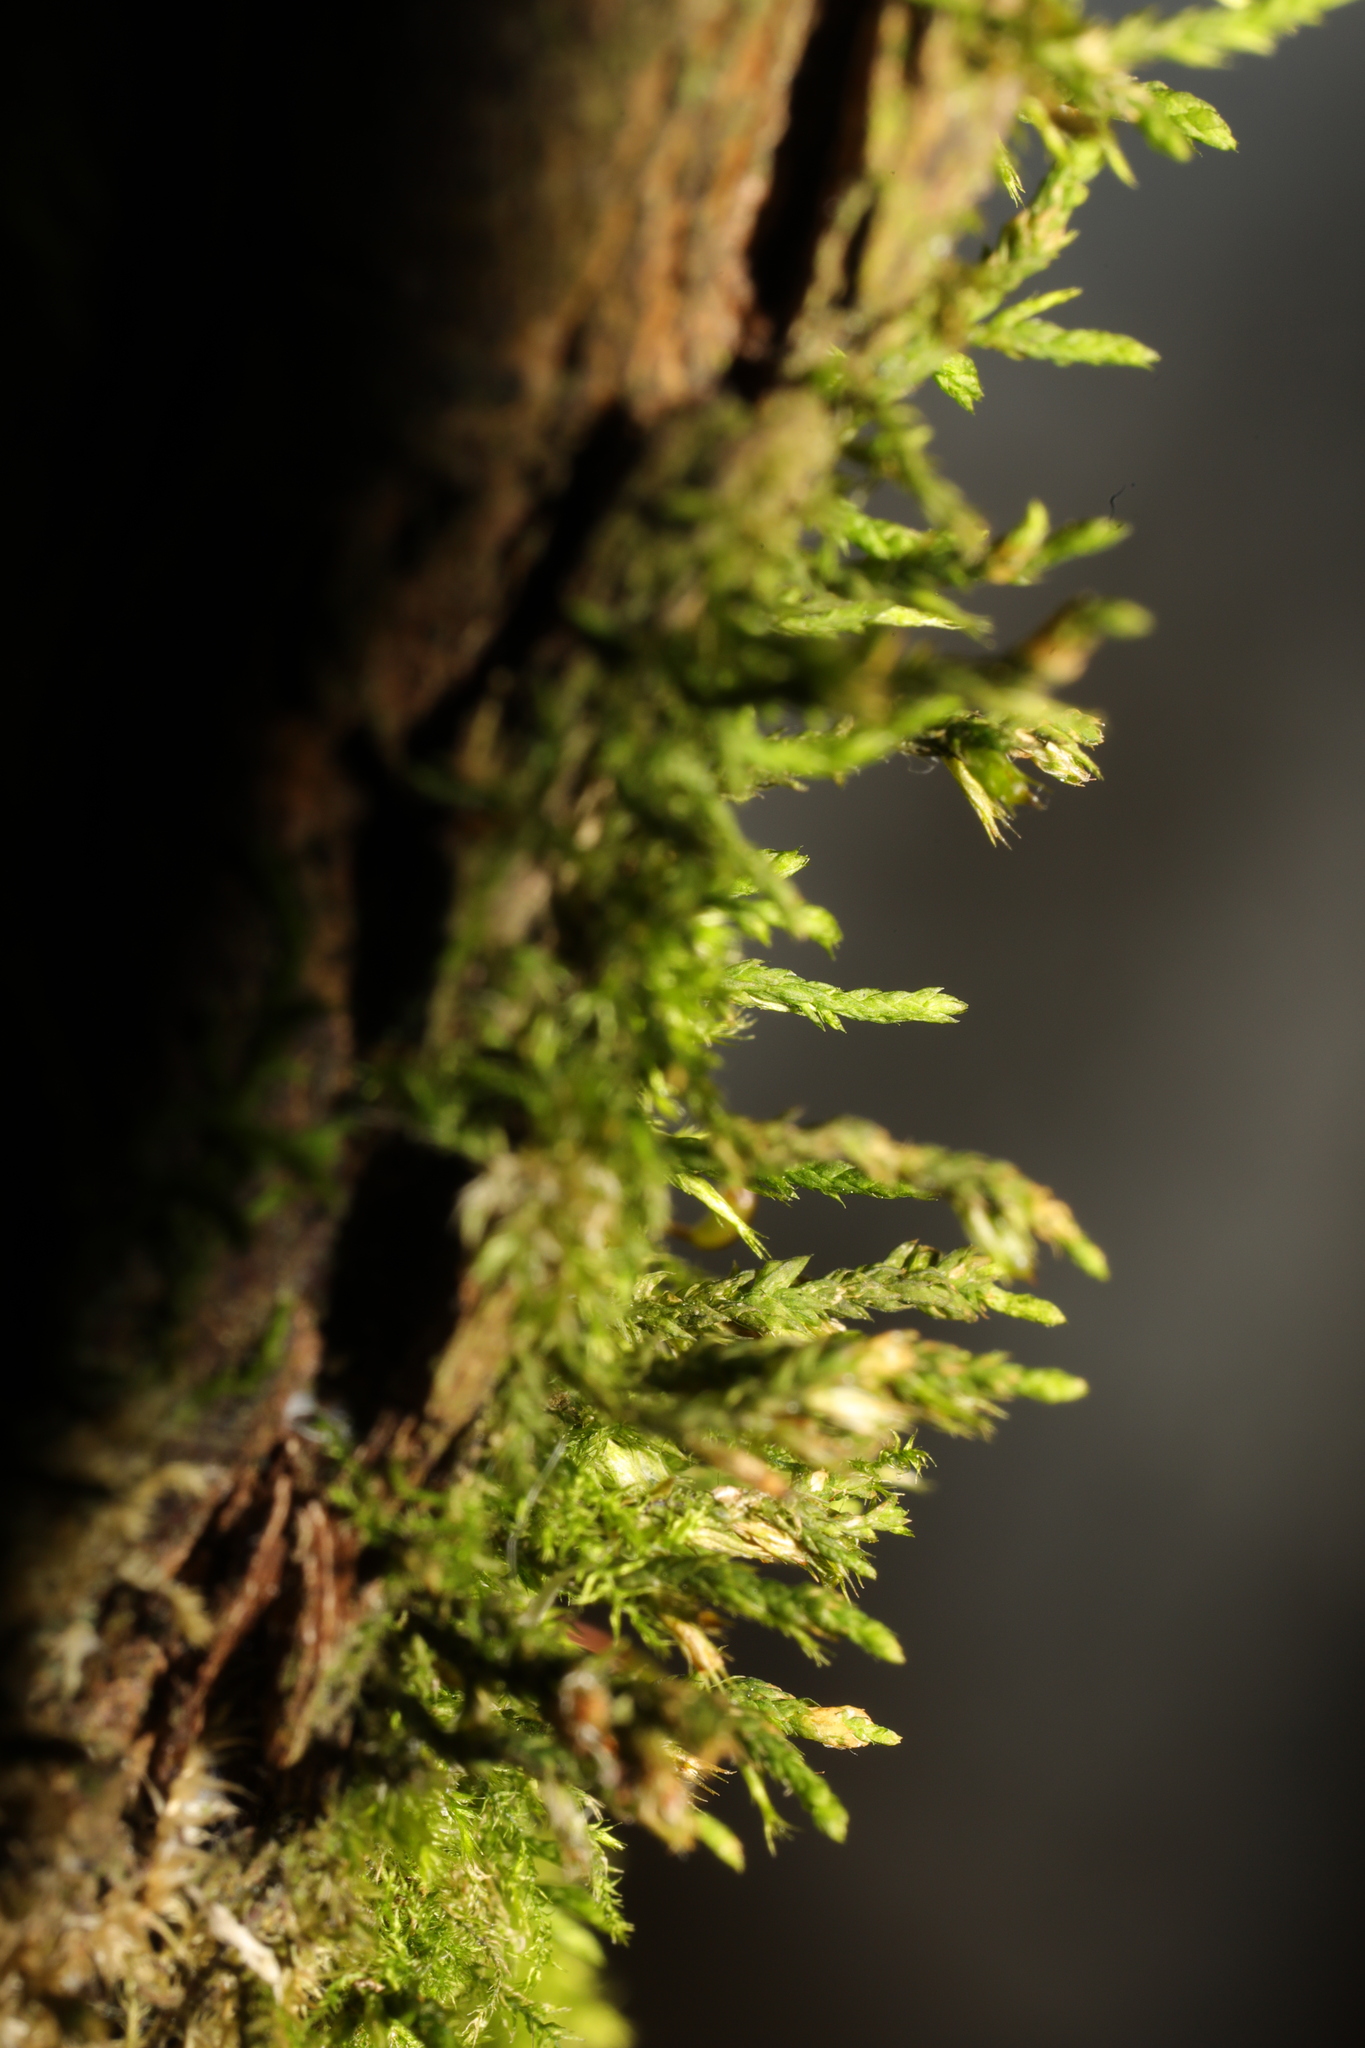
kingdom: Plantae
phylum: Bryophyta
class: Bryopsida
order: Hypnales
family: Cryphaeaceae
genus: Cryphaea
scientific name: Cryphaea heteromalla
